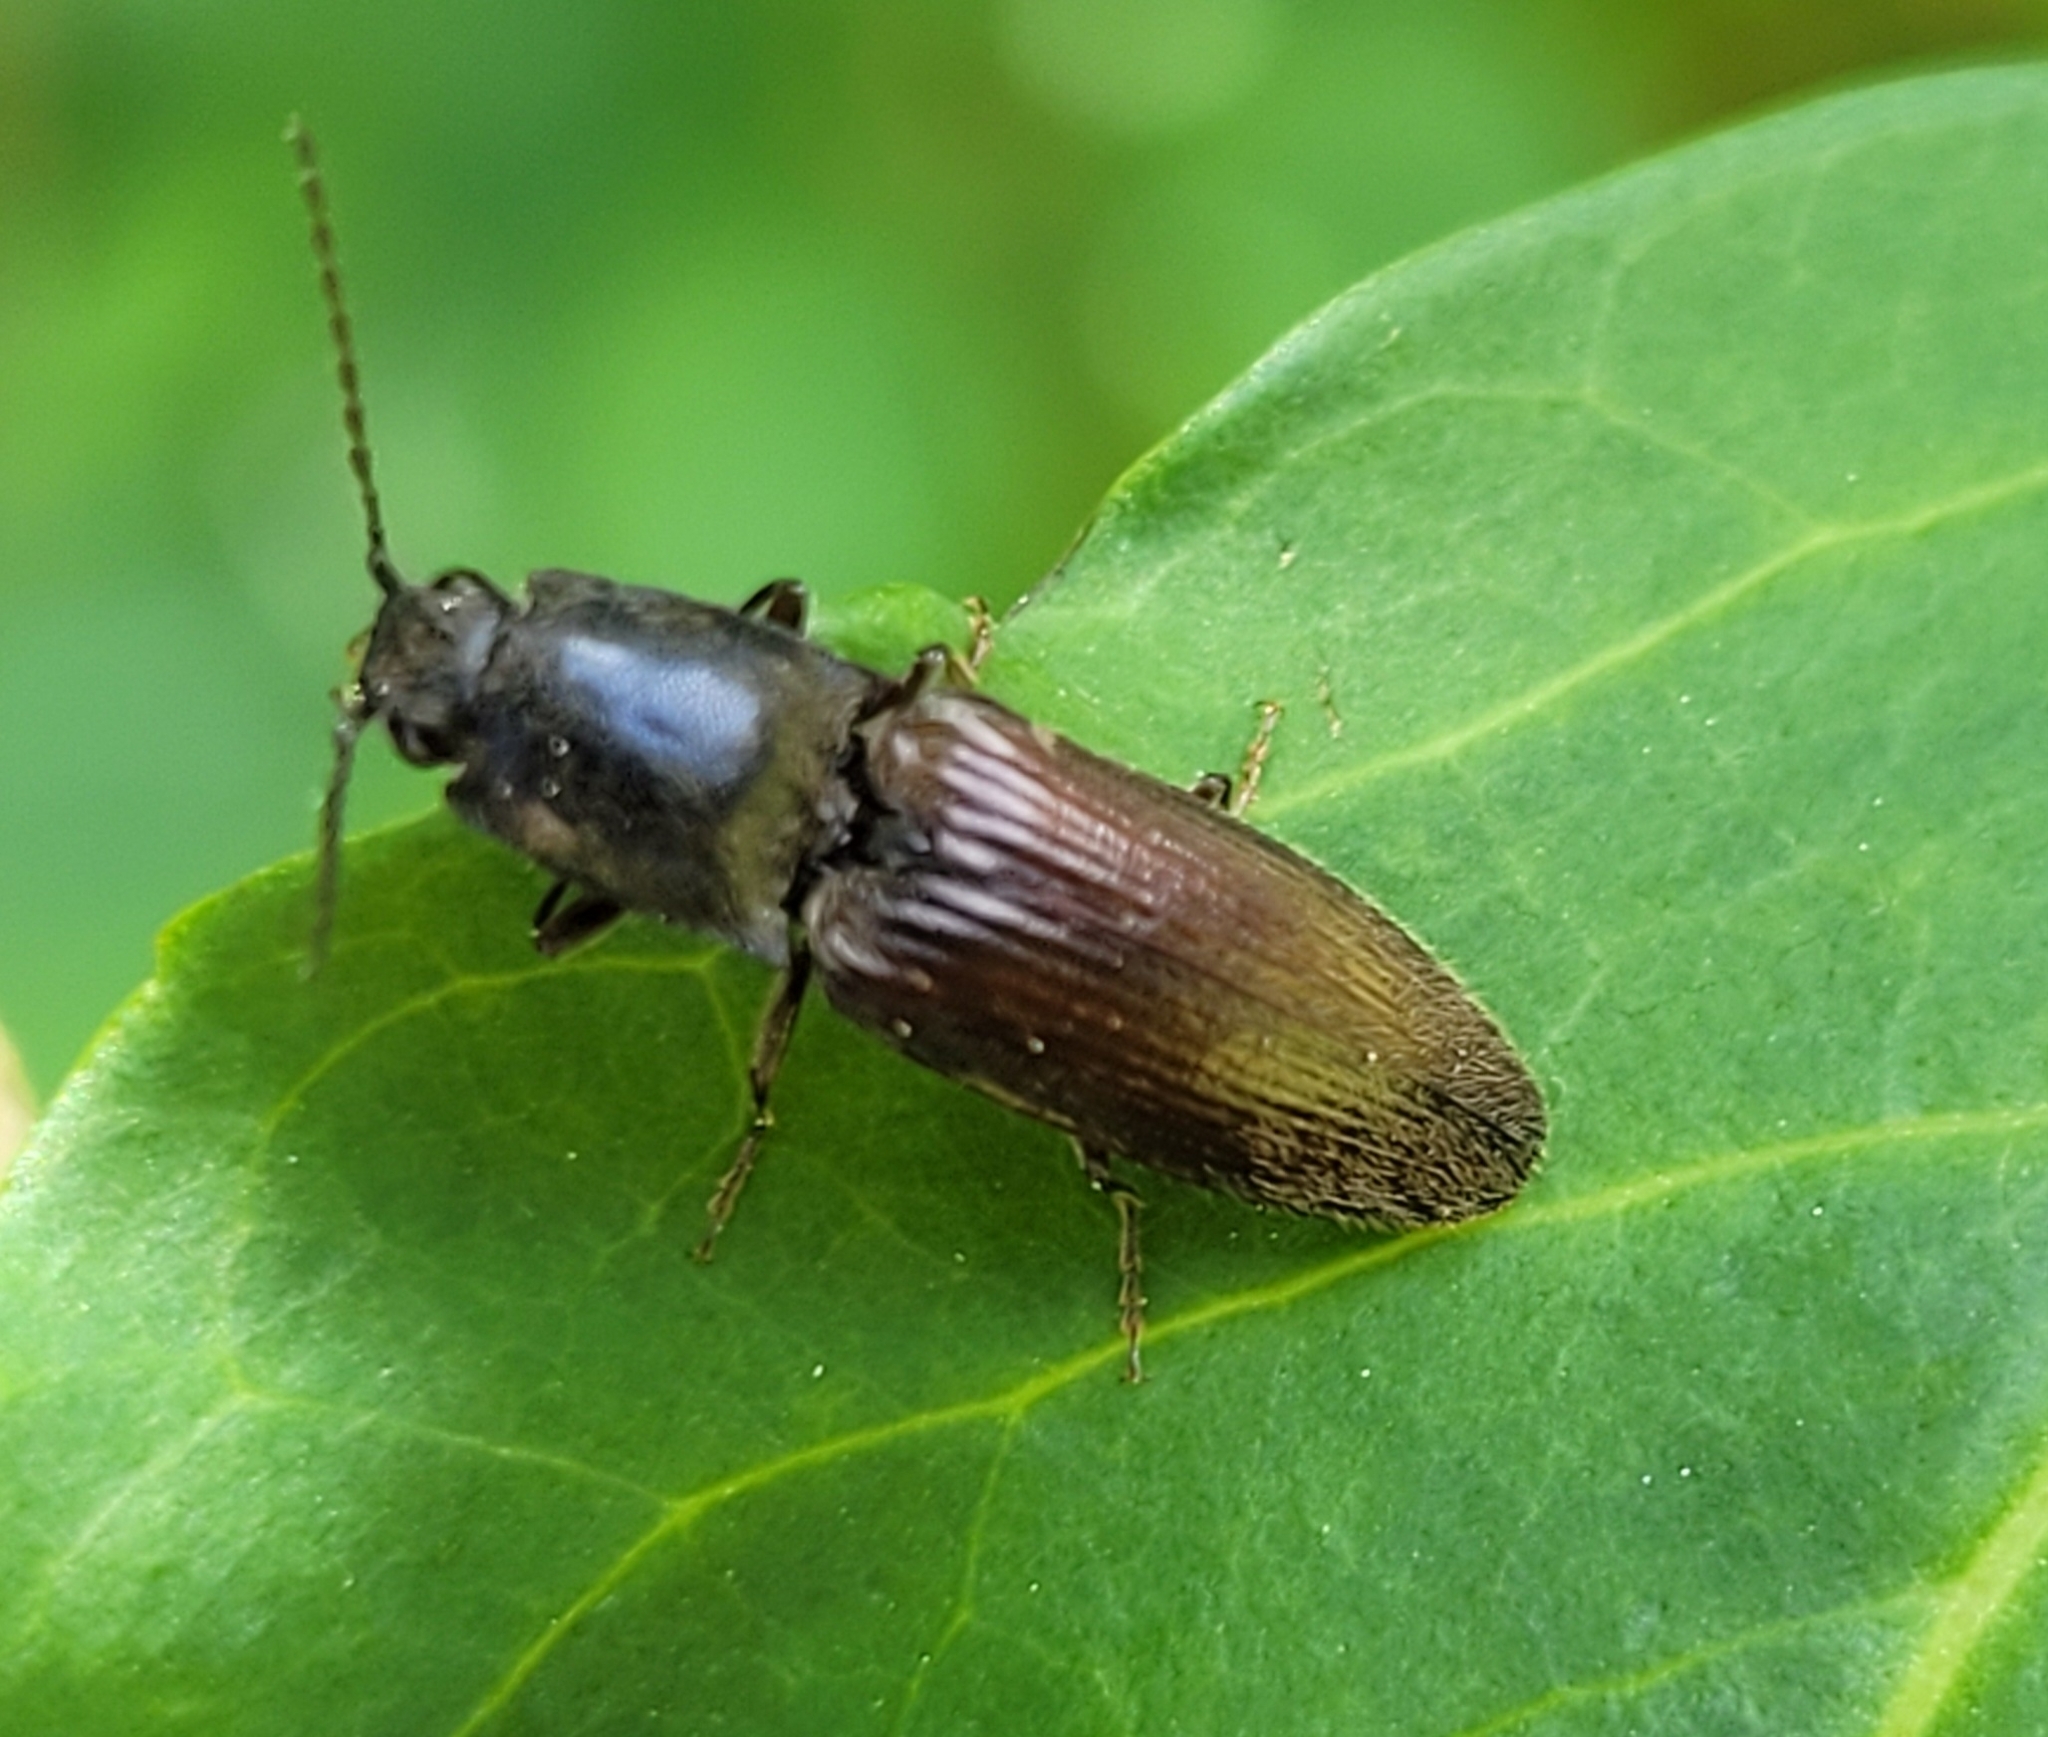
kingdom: Animalia
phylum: Arthropoda
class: Insecta
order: Coleoptera
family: Elateridae
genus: Athous
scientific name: Athous haemorrhoidalis
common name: Red-brown click beetle
